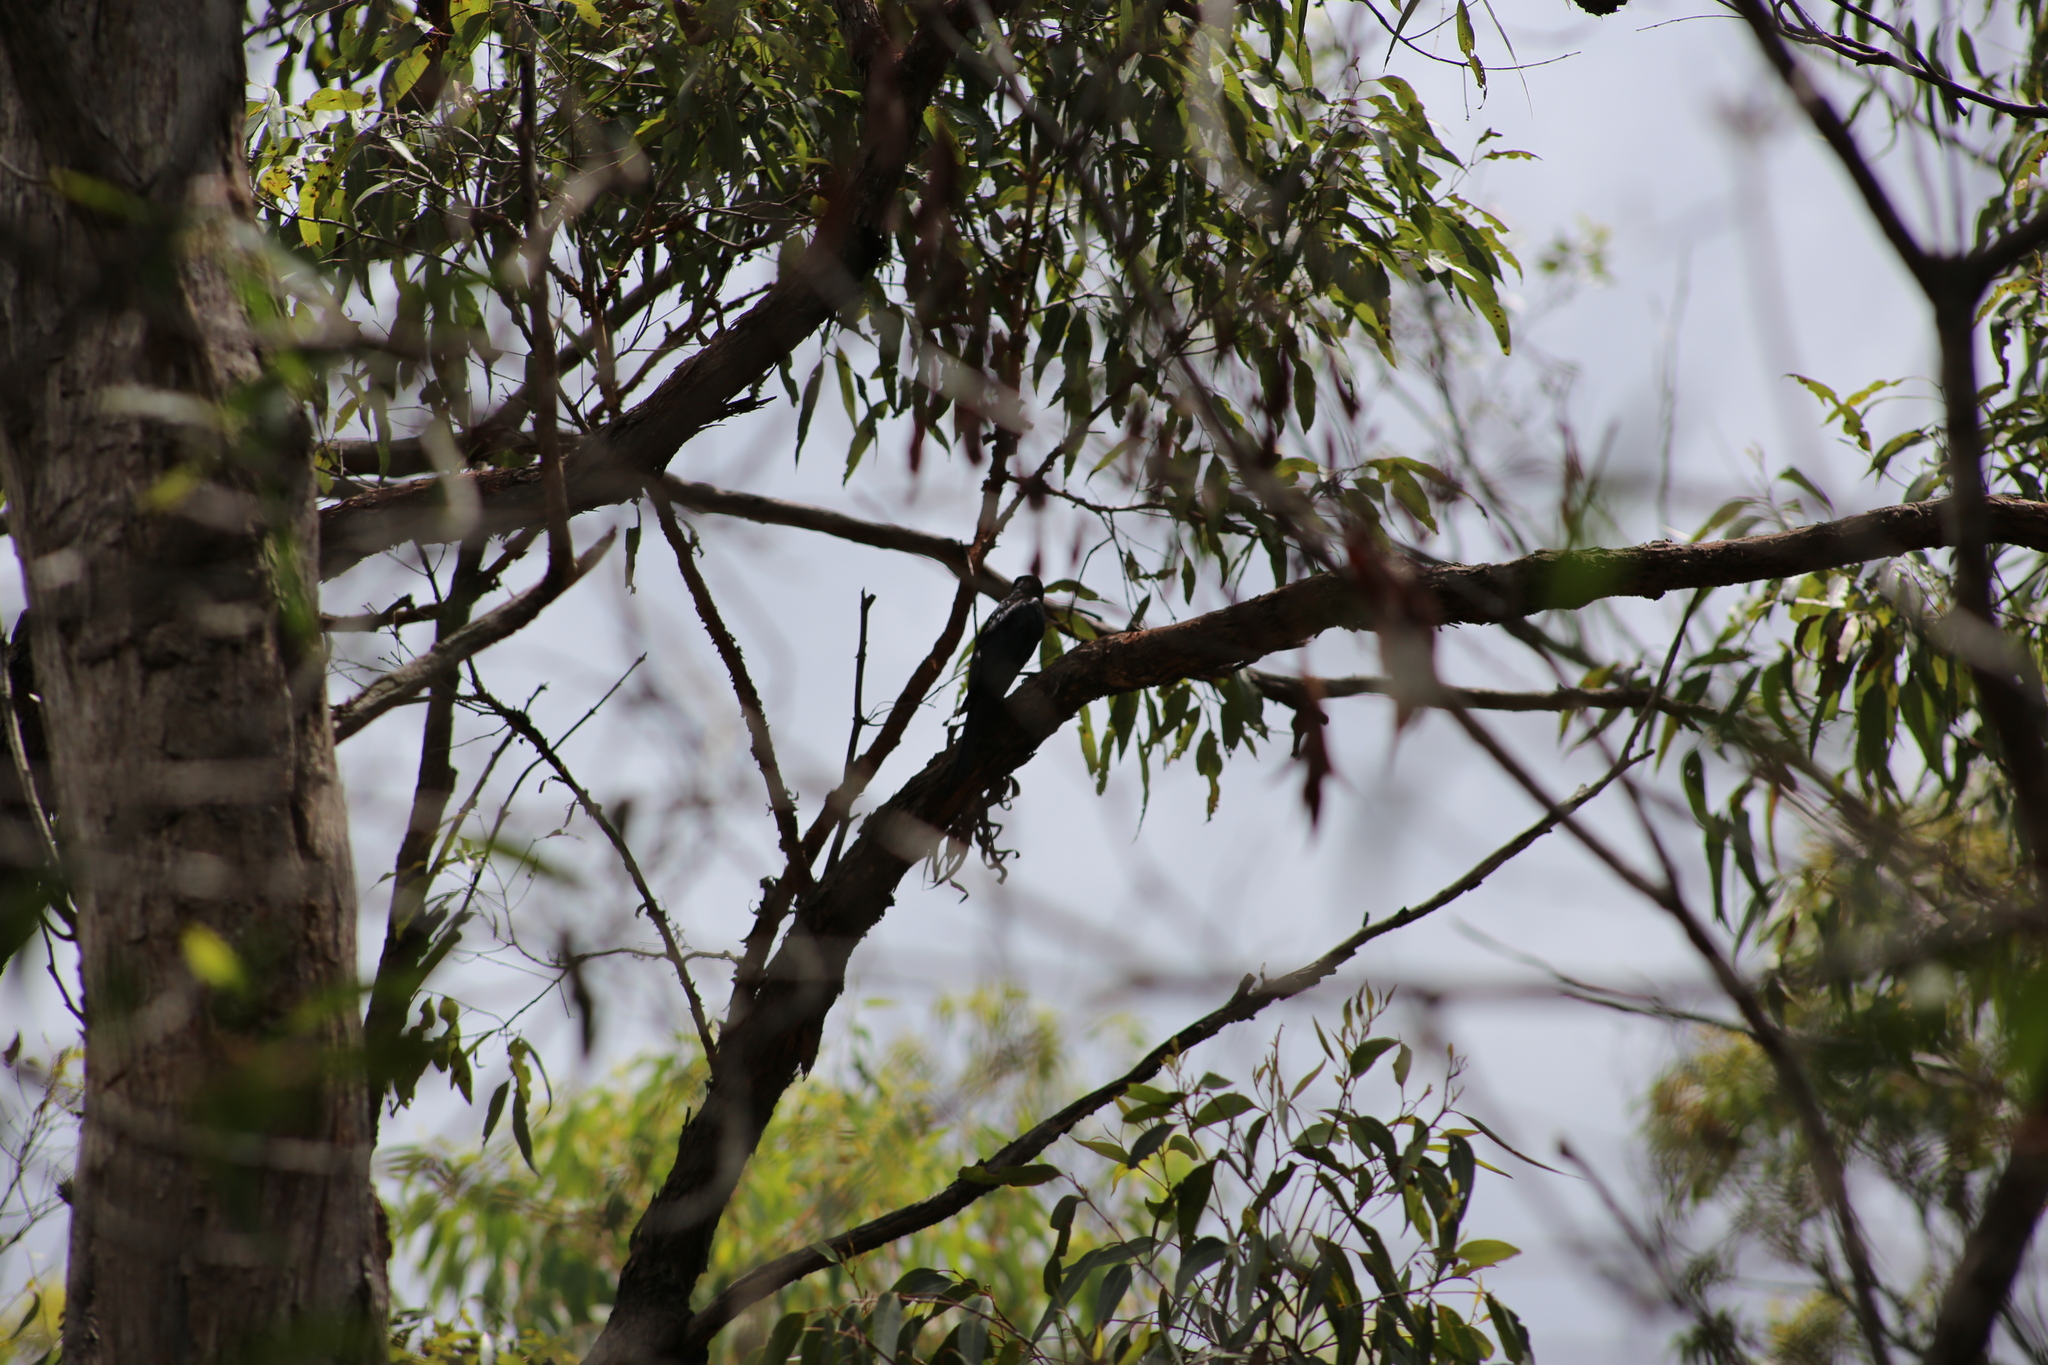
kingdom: Animalia
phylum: Chordata
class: Aves
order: Passeriformes
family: Dicruridae
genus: Dicrurus
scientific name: Dicrurus bracteatus
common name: Spangled drongo
